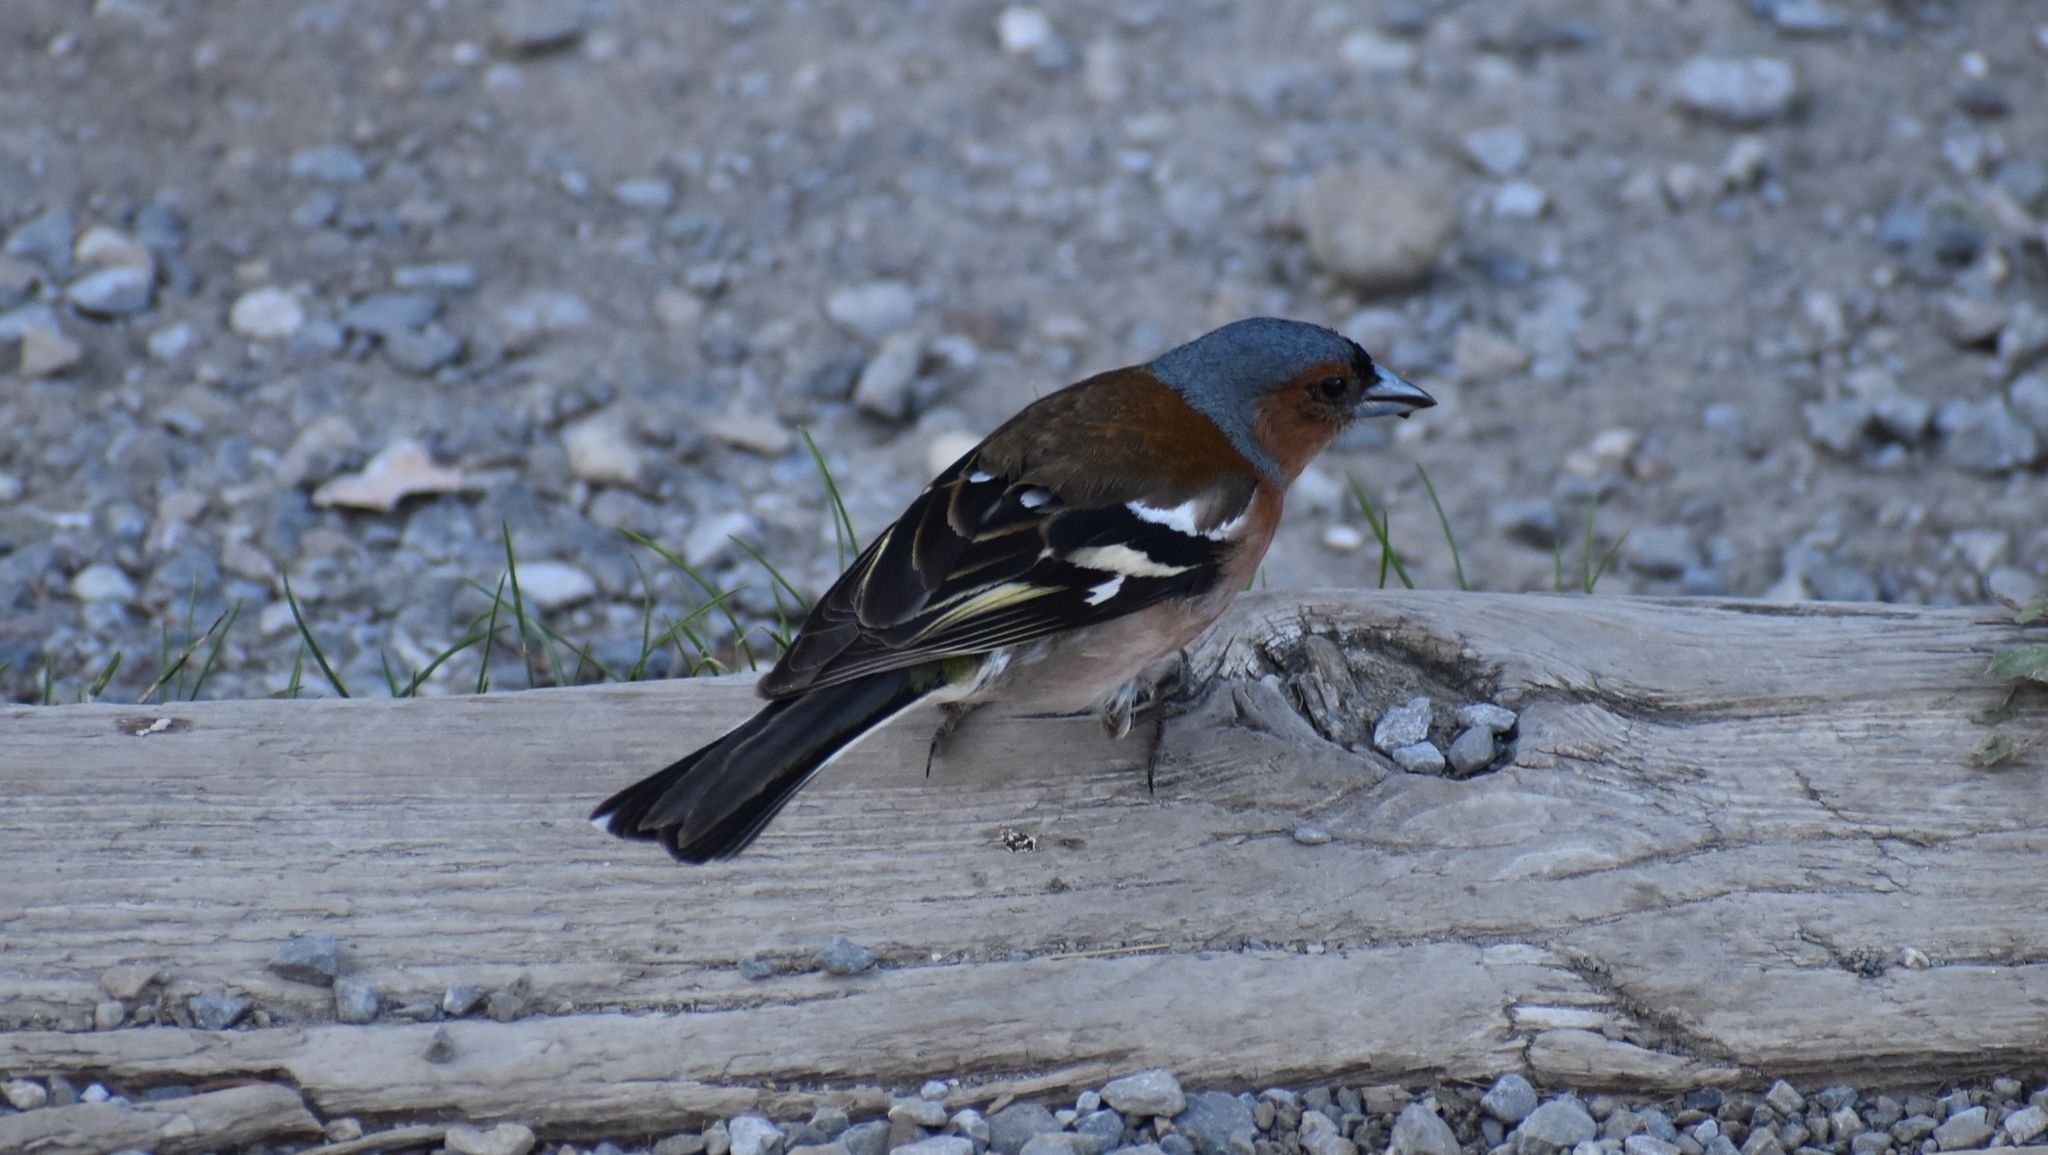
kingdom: Animalia
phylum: Chordata
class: Aves
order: Passeriformes
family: Fringillidae
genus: Fringilla
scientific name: Fringilla coelebs
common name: Common chaffinch
